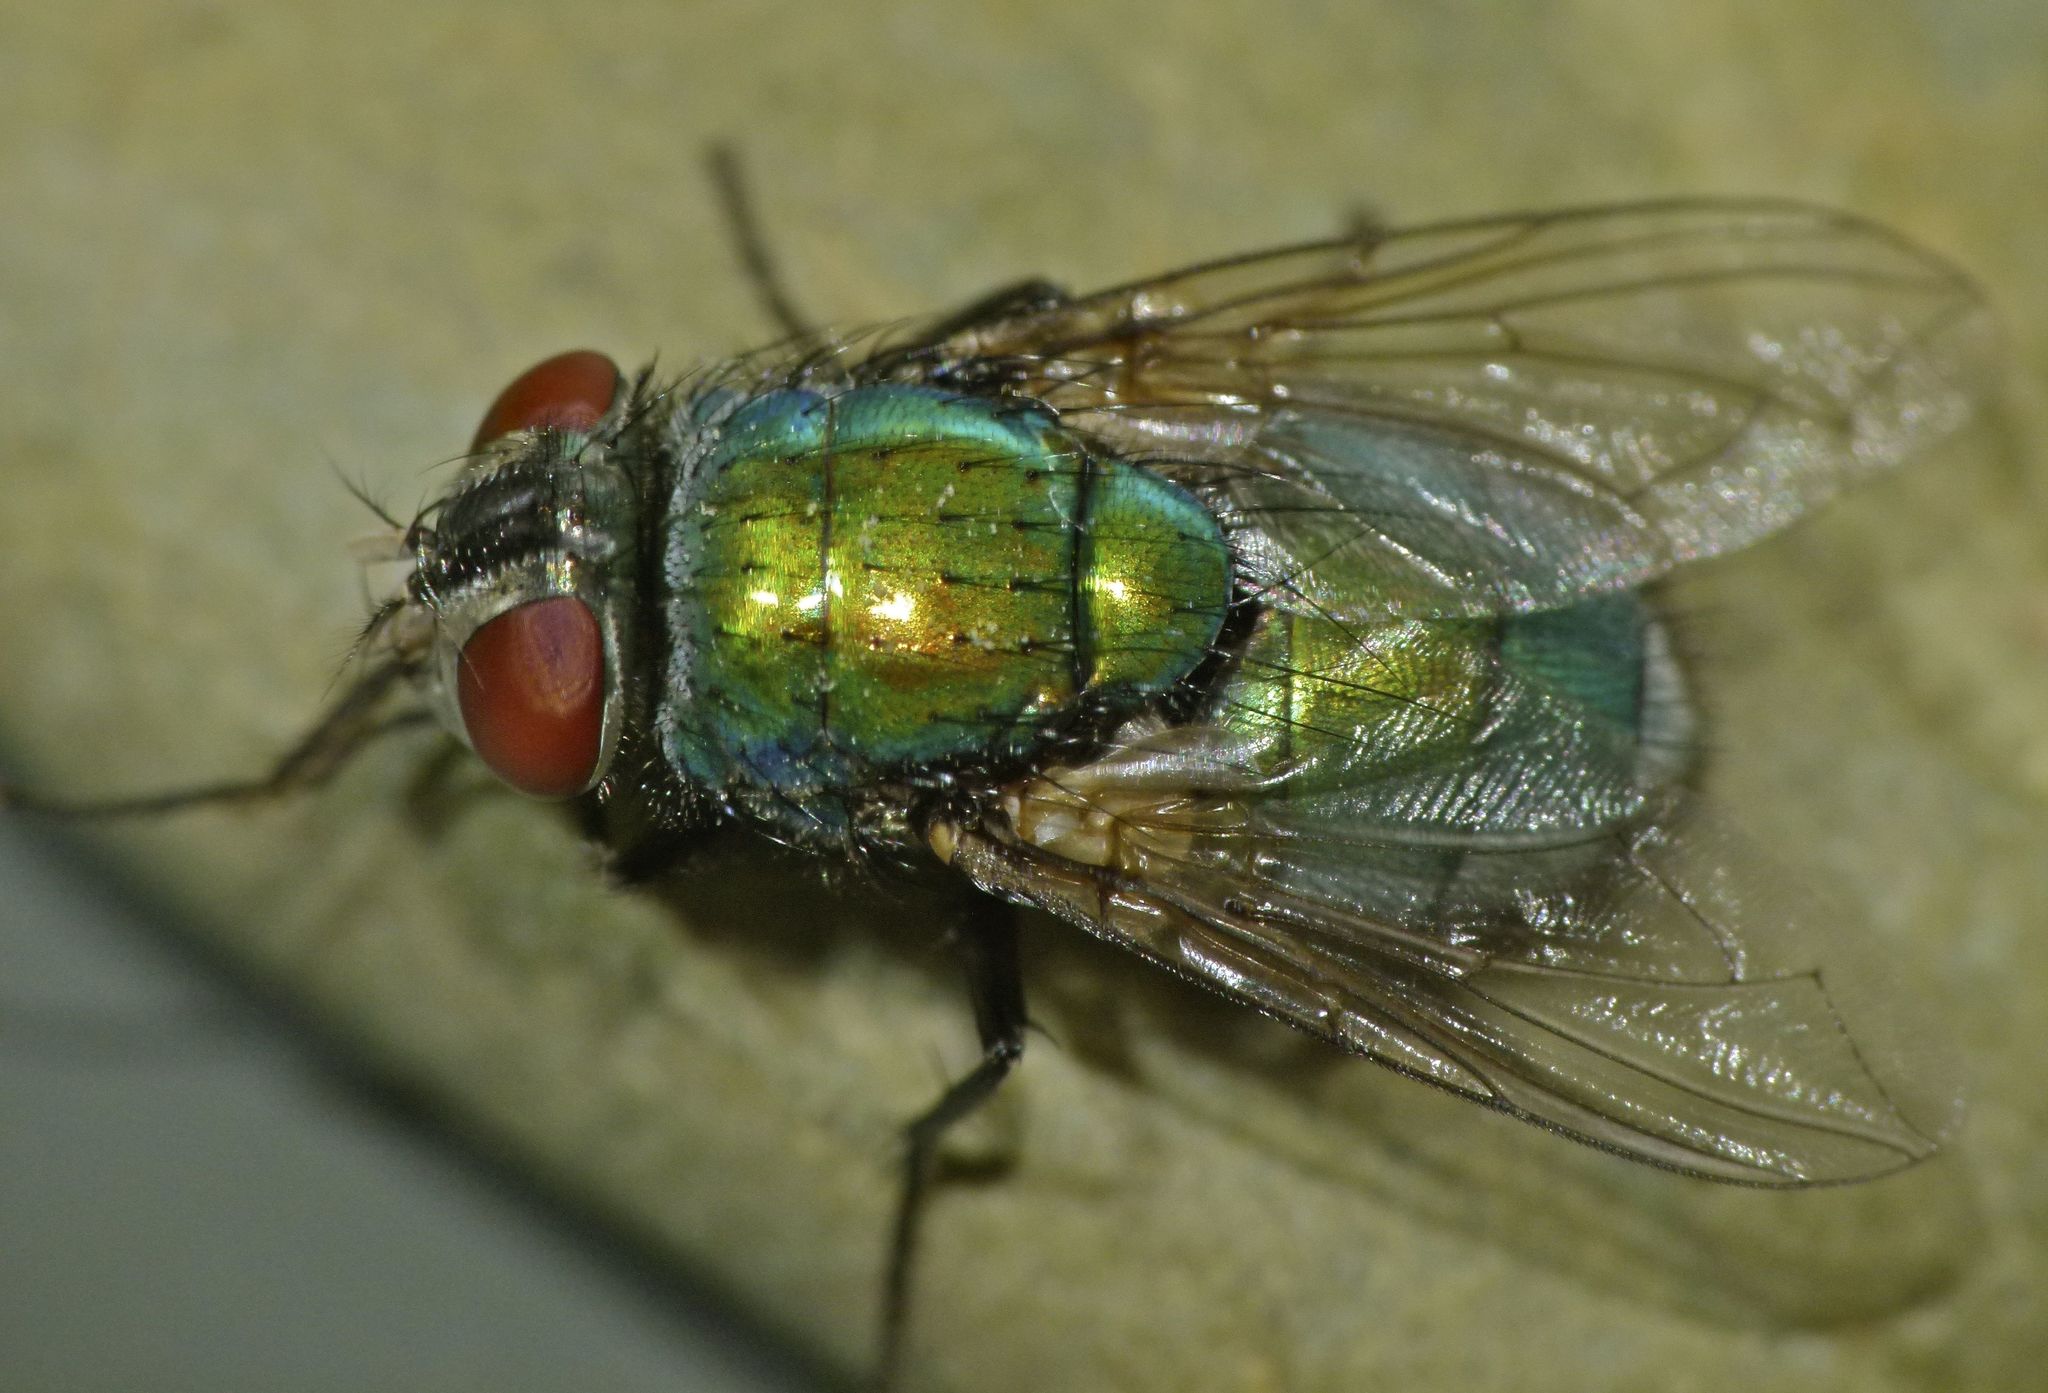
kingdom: Animalia
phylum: Arthropoda
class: Insecta
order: Diptera
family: Calliphoridae
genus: Lucilia
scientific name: Lucilia sericata
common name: Blow fly
